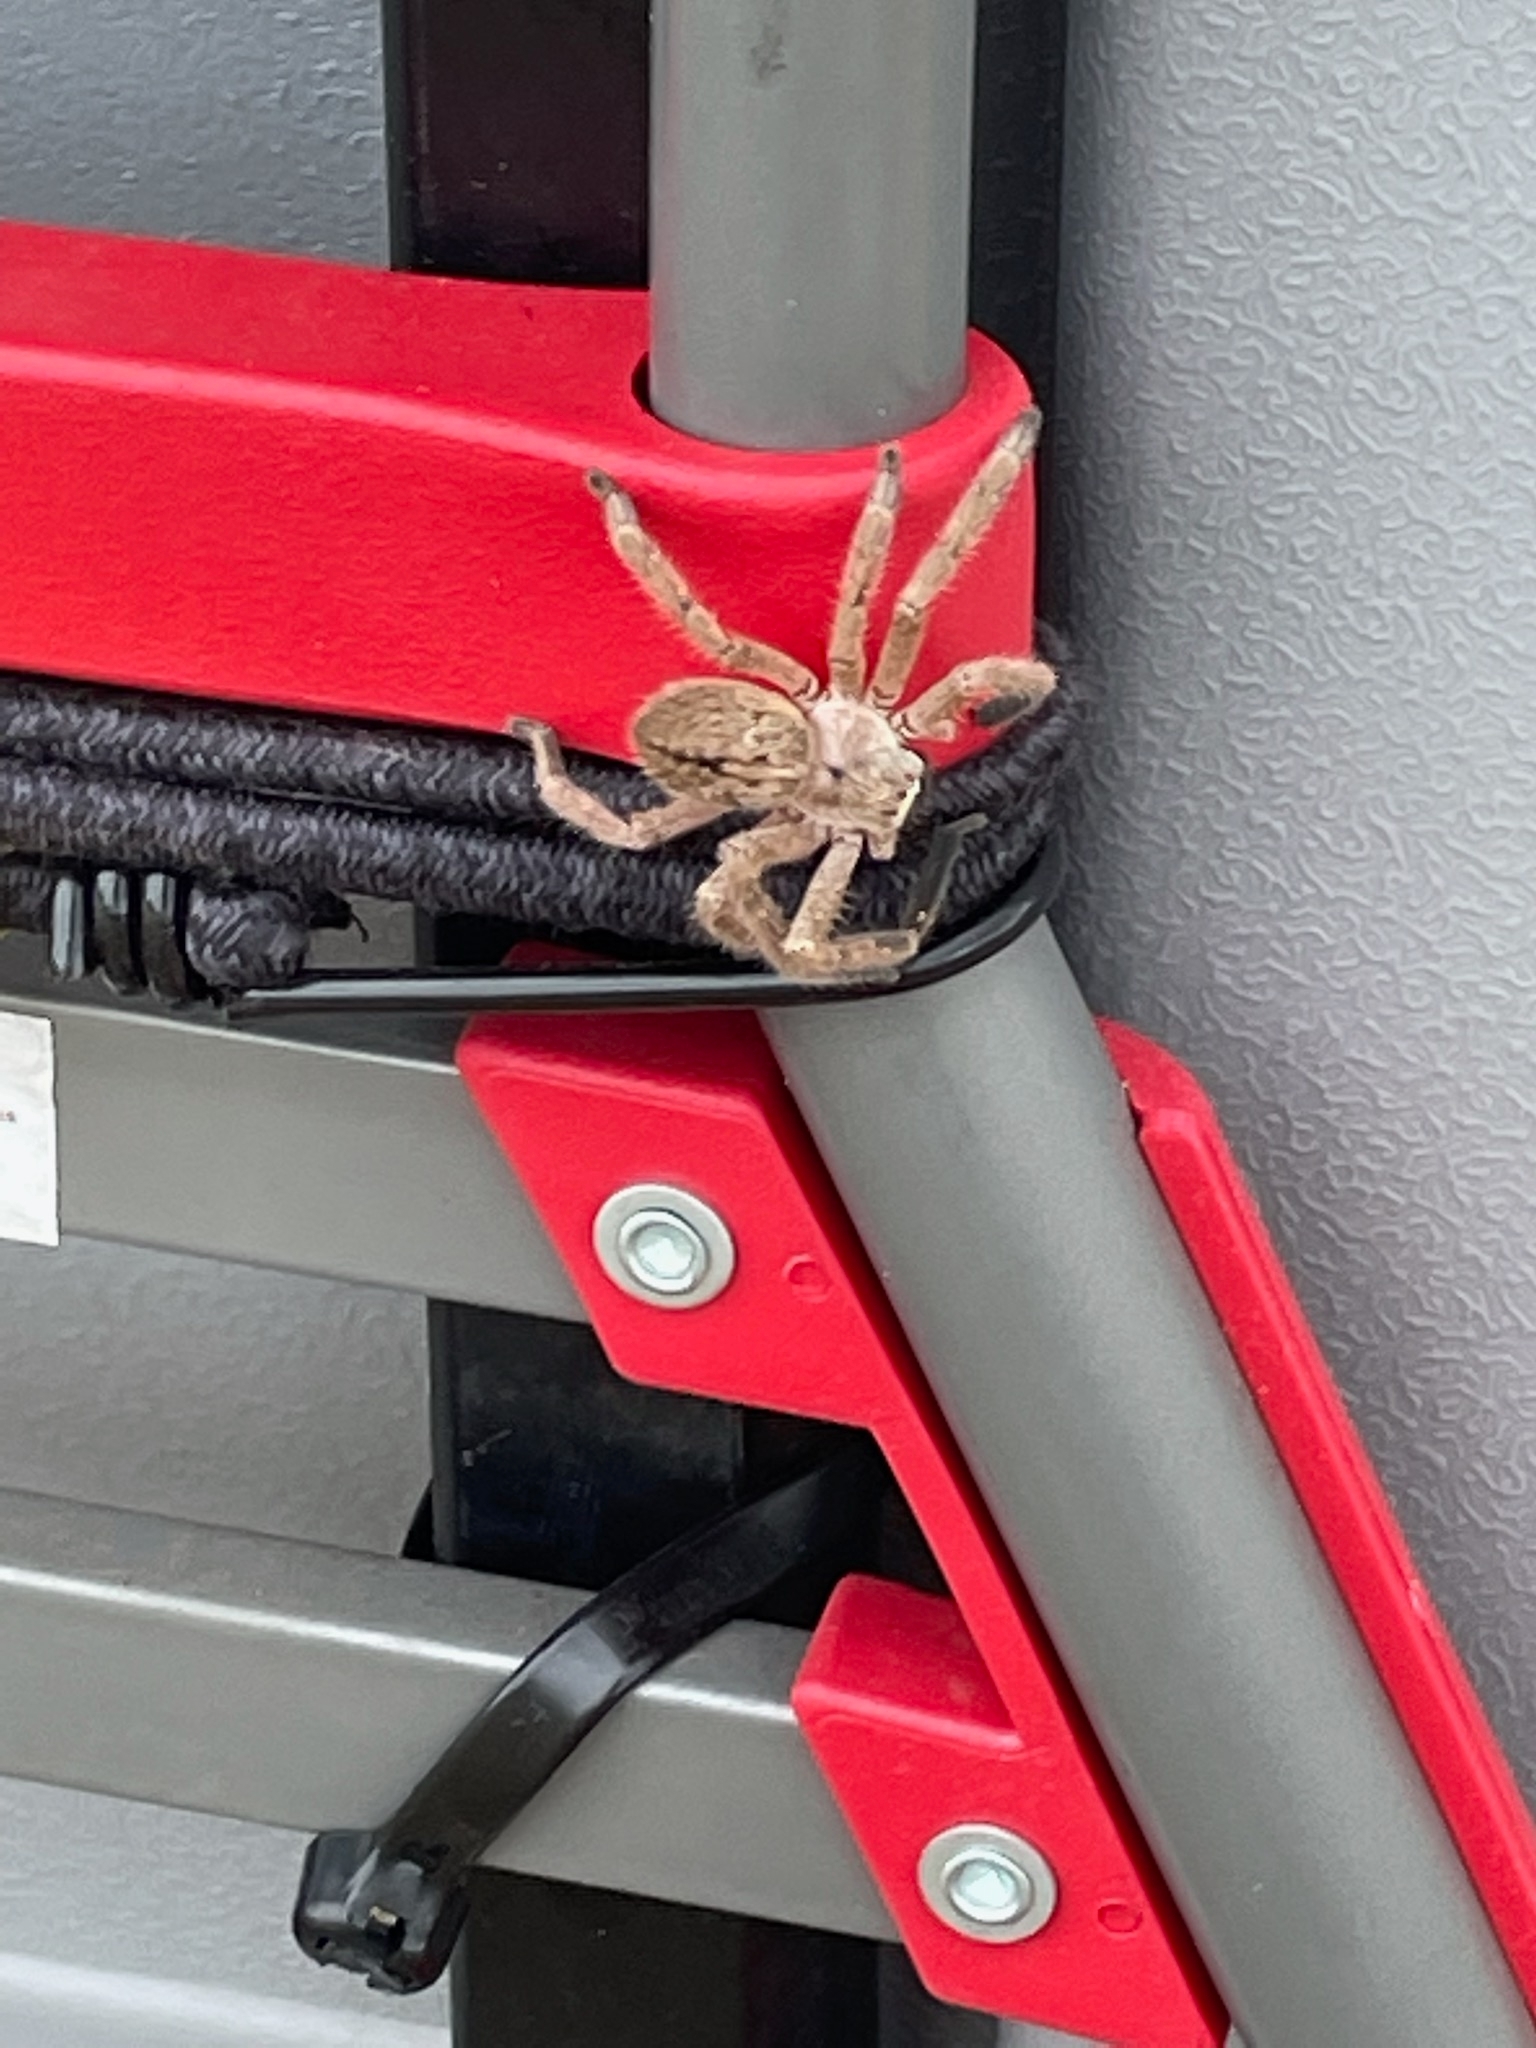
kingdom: Animalia
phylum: Arthropoda
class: Arachnida
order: Araneae
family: Sparassidae
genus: Olios
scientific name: Olios giganteus
